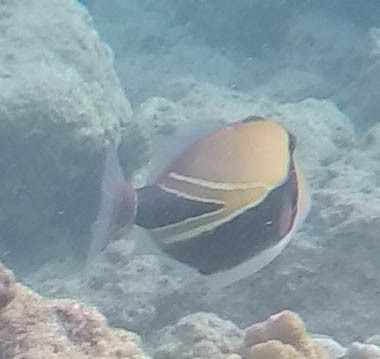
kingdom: Animalia
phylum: Chordata
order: Tetraodontiformes
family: Balistidae
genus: Rhinecanthus
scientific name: Rhinecanthus rectangulus
